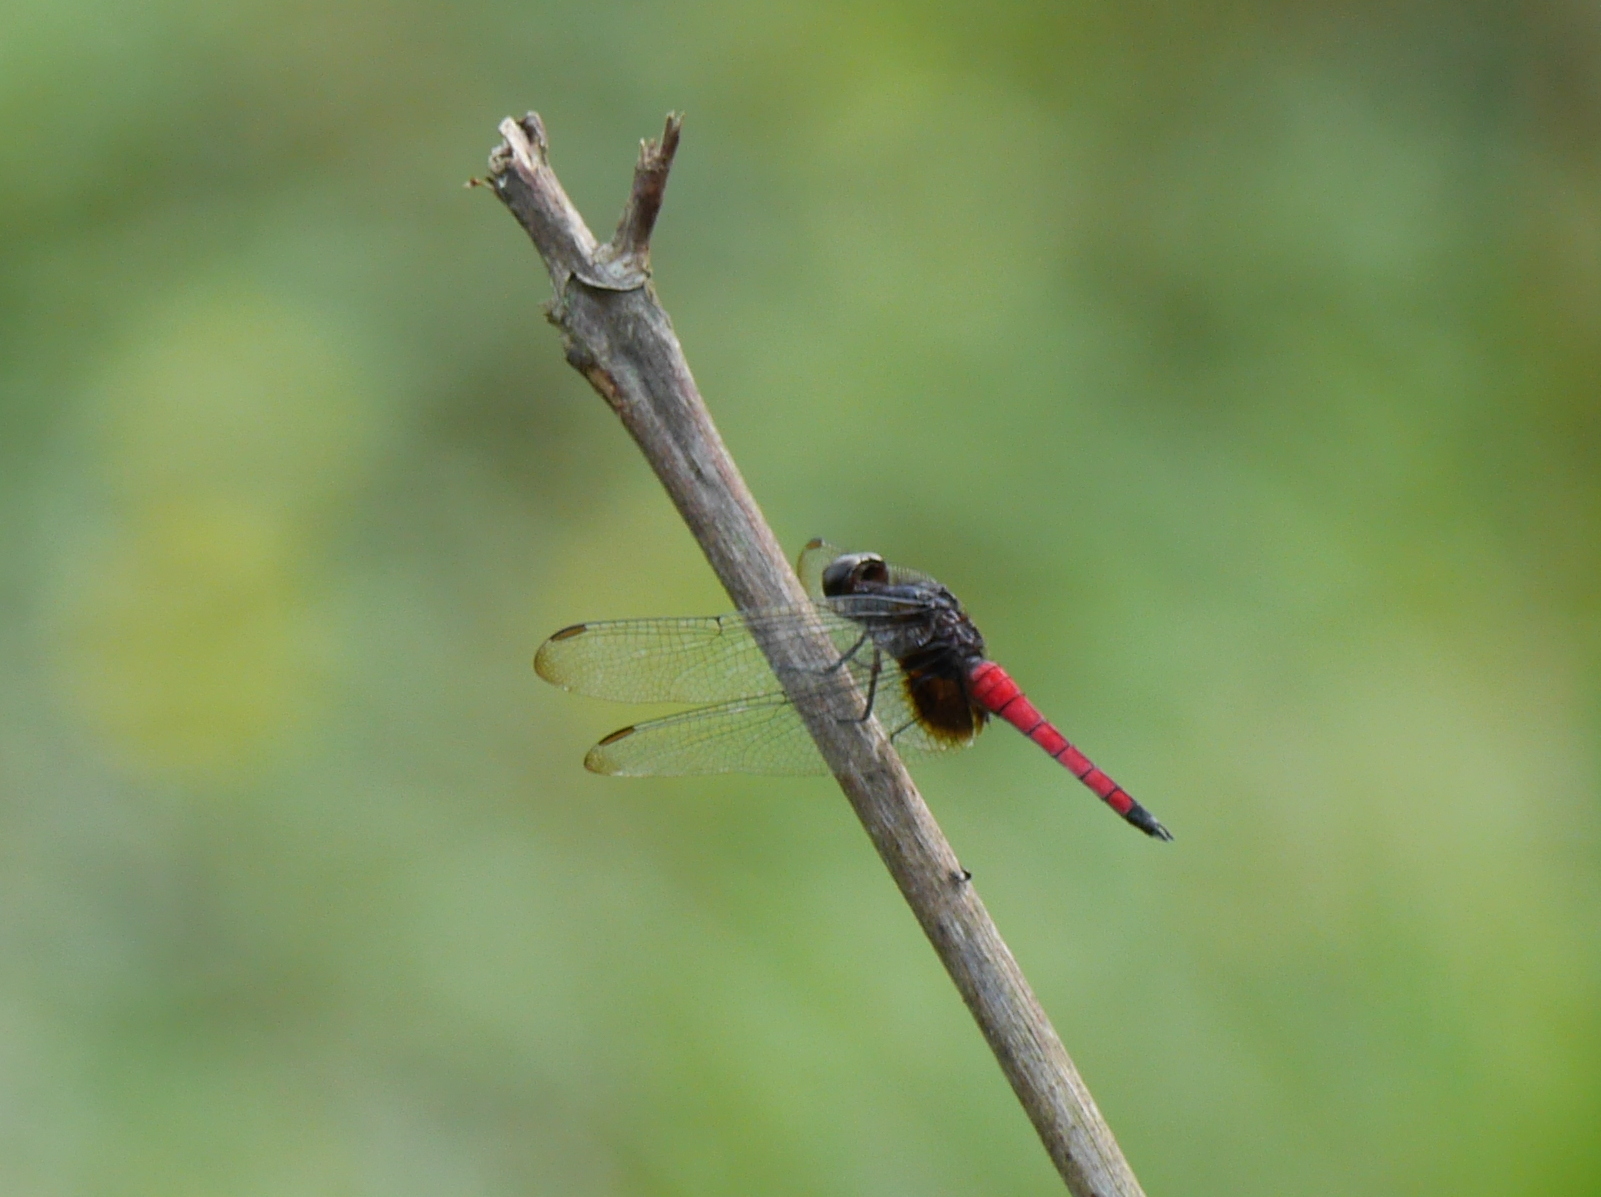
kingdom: Animalia
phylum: Arthropoda
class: Insecta
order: Odonata
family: Libellulidae
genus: Hadrothemis
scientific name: Hadrothemis defecta
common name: Scarlet jungleskimmer
